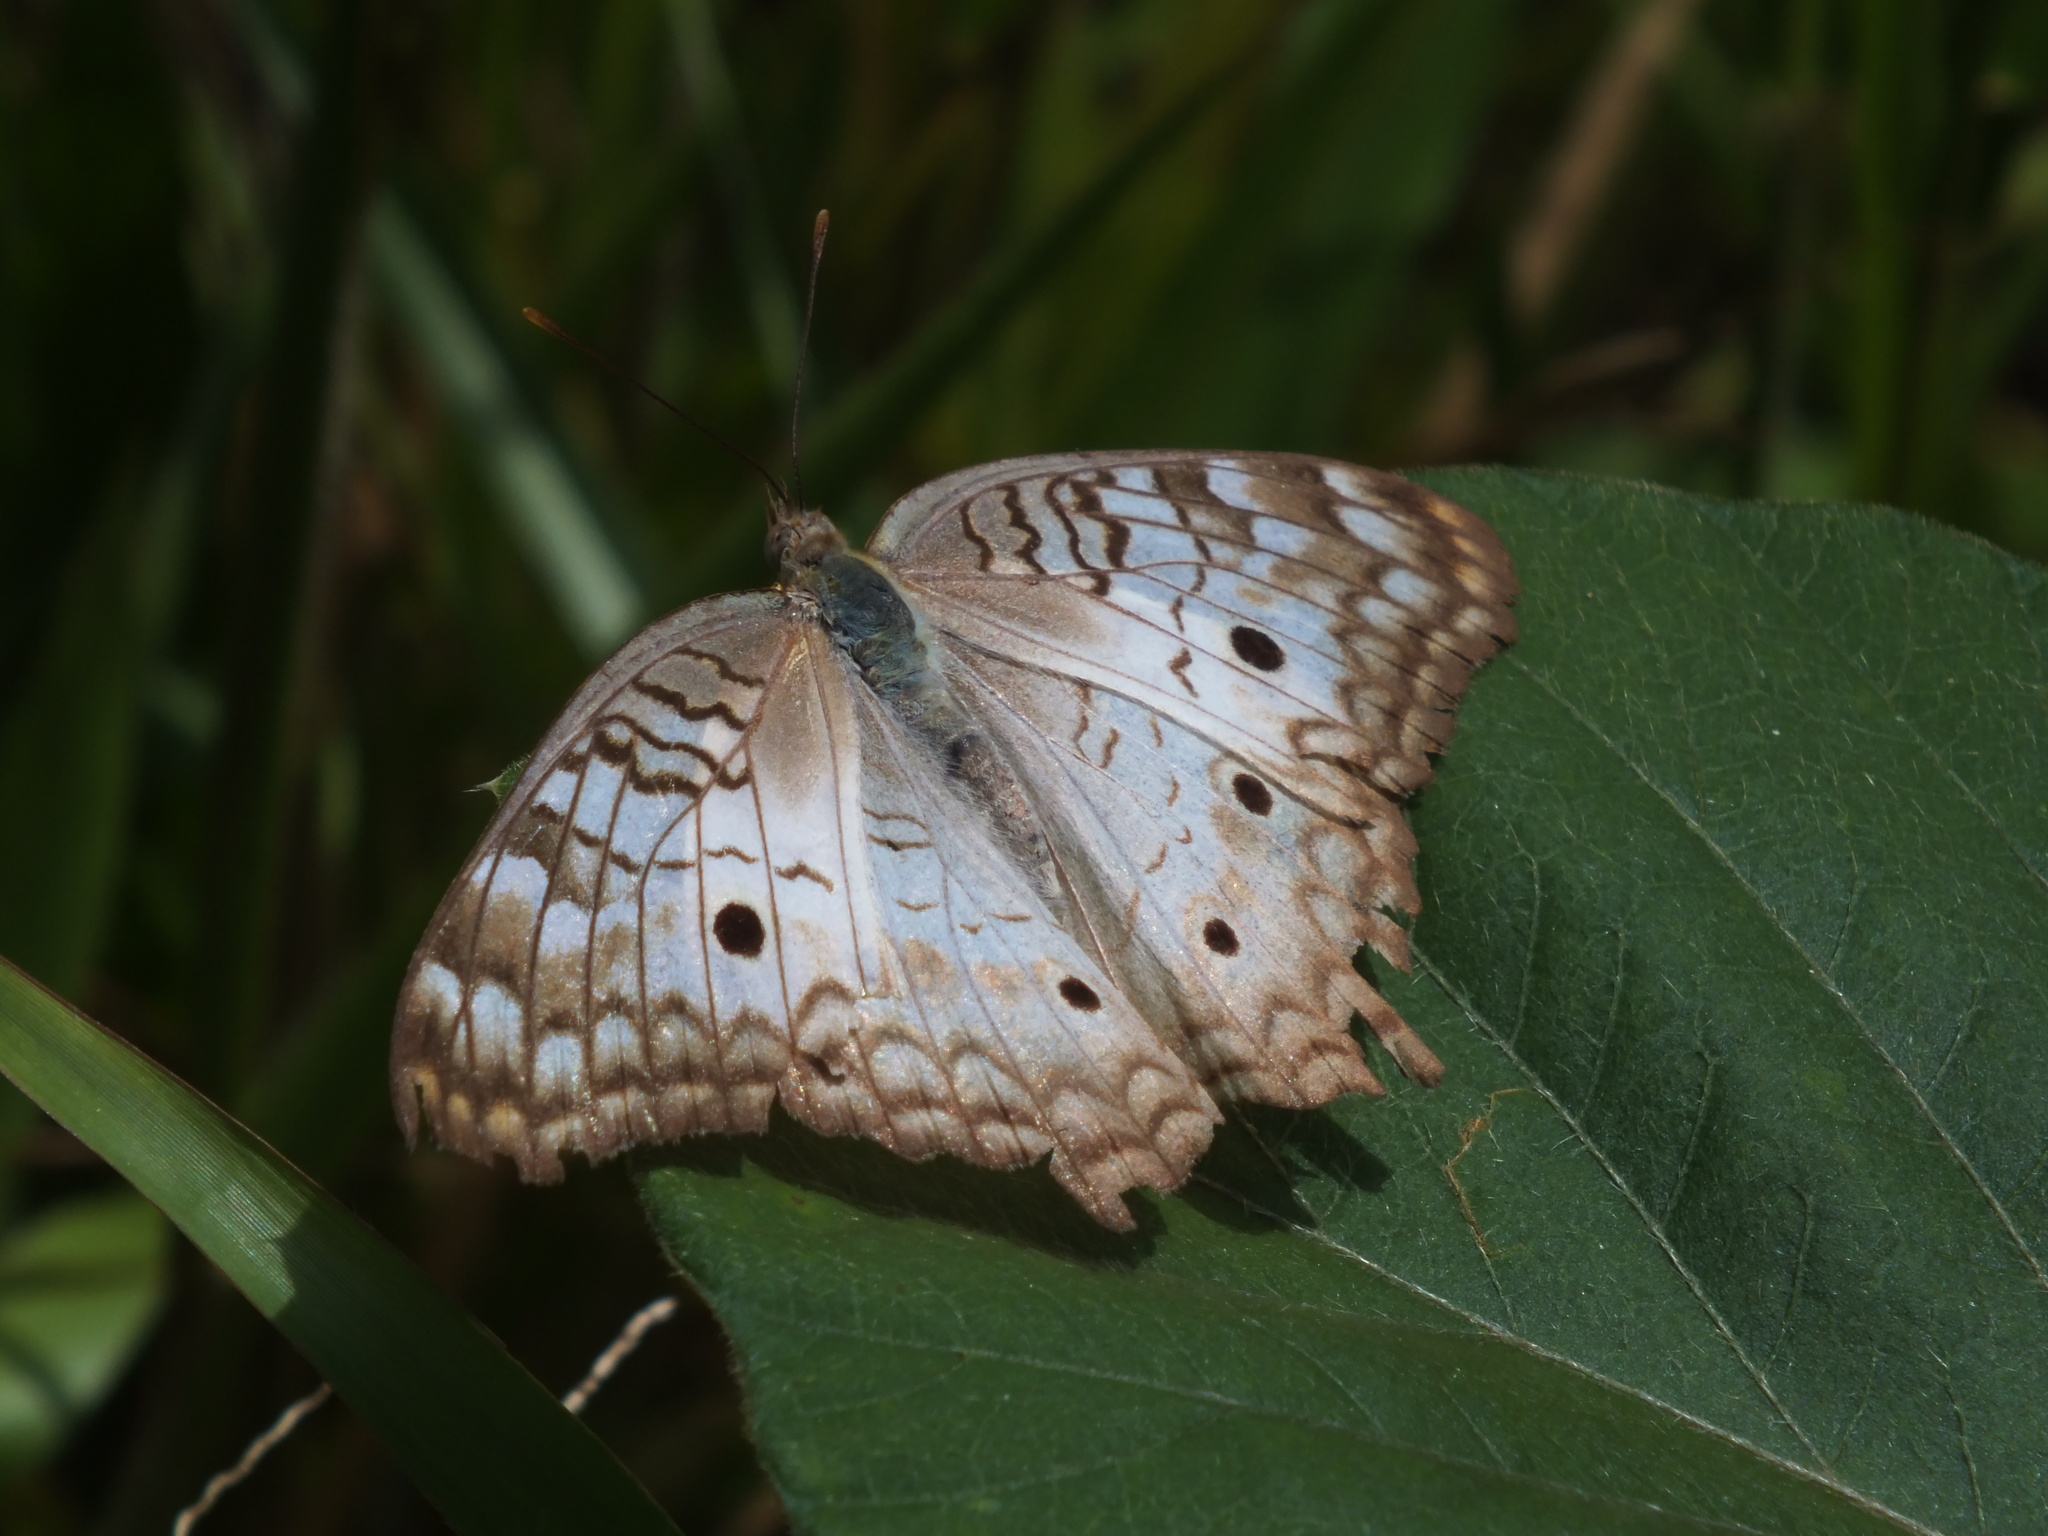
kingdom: Animalia
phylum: Arthropoda
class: Insecta
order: Lepidoptera
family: Nymphalidae
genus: Anartia
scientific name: Anartia jatrophae
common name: White peacock
